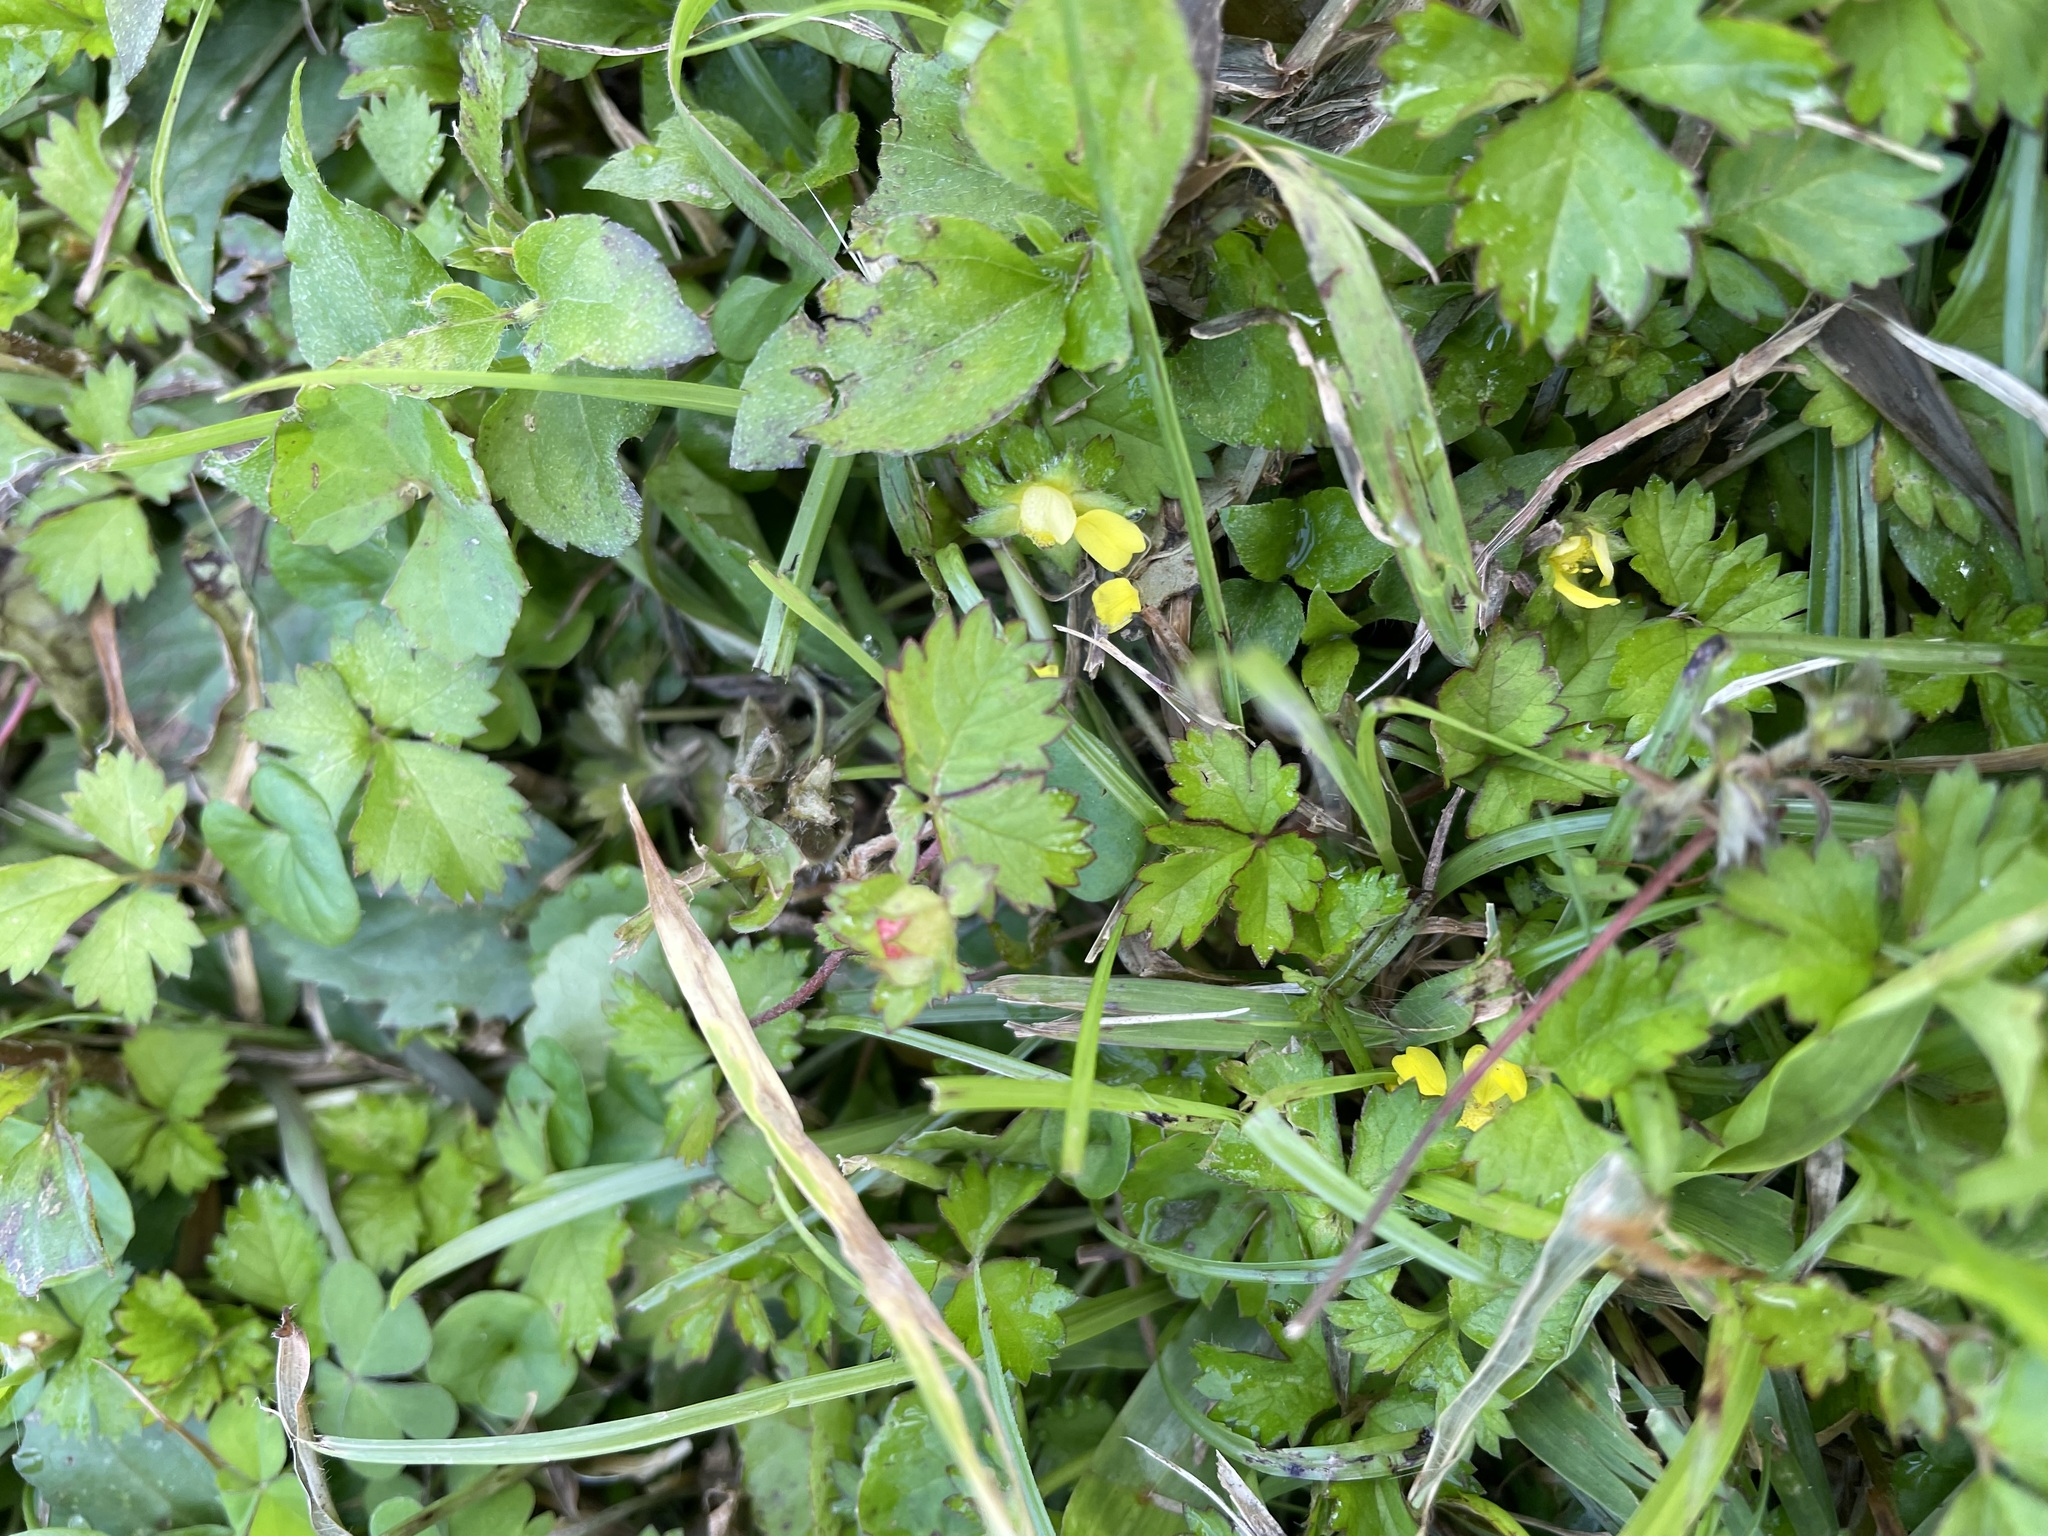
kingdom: Plantae
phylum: Tracheophyta
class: Magnoliopsida
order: Rosales
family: Rosaceae
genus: Potentilla
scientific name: Potentilla wallichiana
